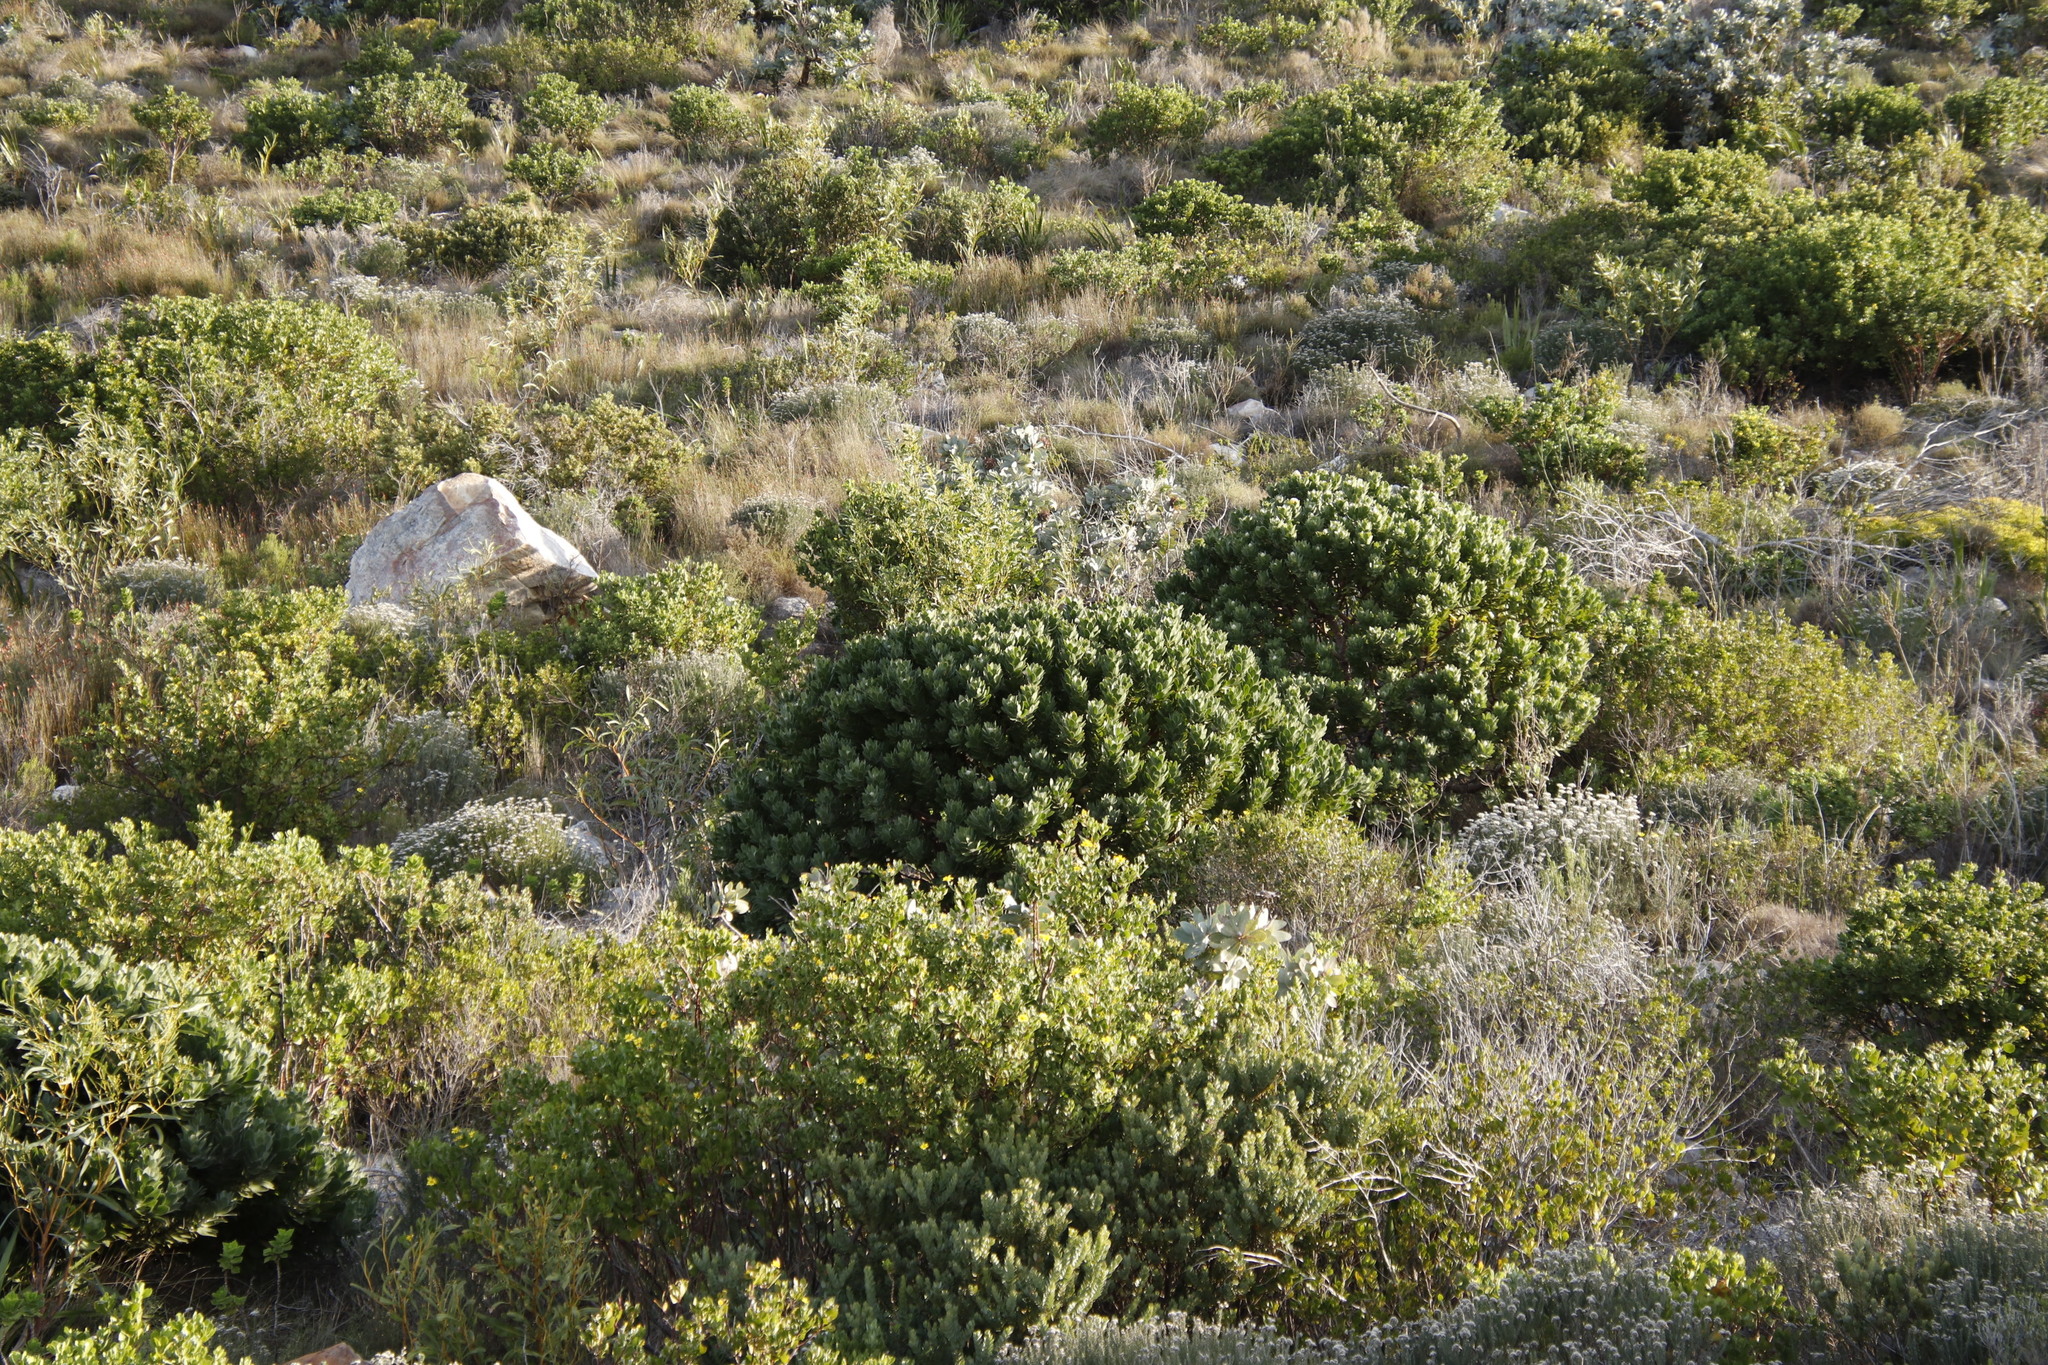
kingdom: Plantae
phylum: Tracheophyta
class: Magnoliopsida
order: Proteales
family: Proteaceae
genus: Leucospermum
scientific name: Leucospermum conocarpodendron
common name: Tree pincushion
